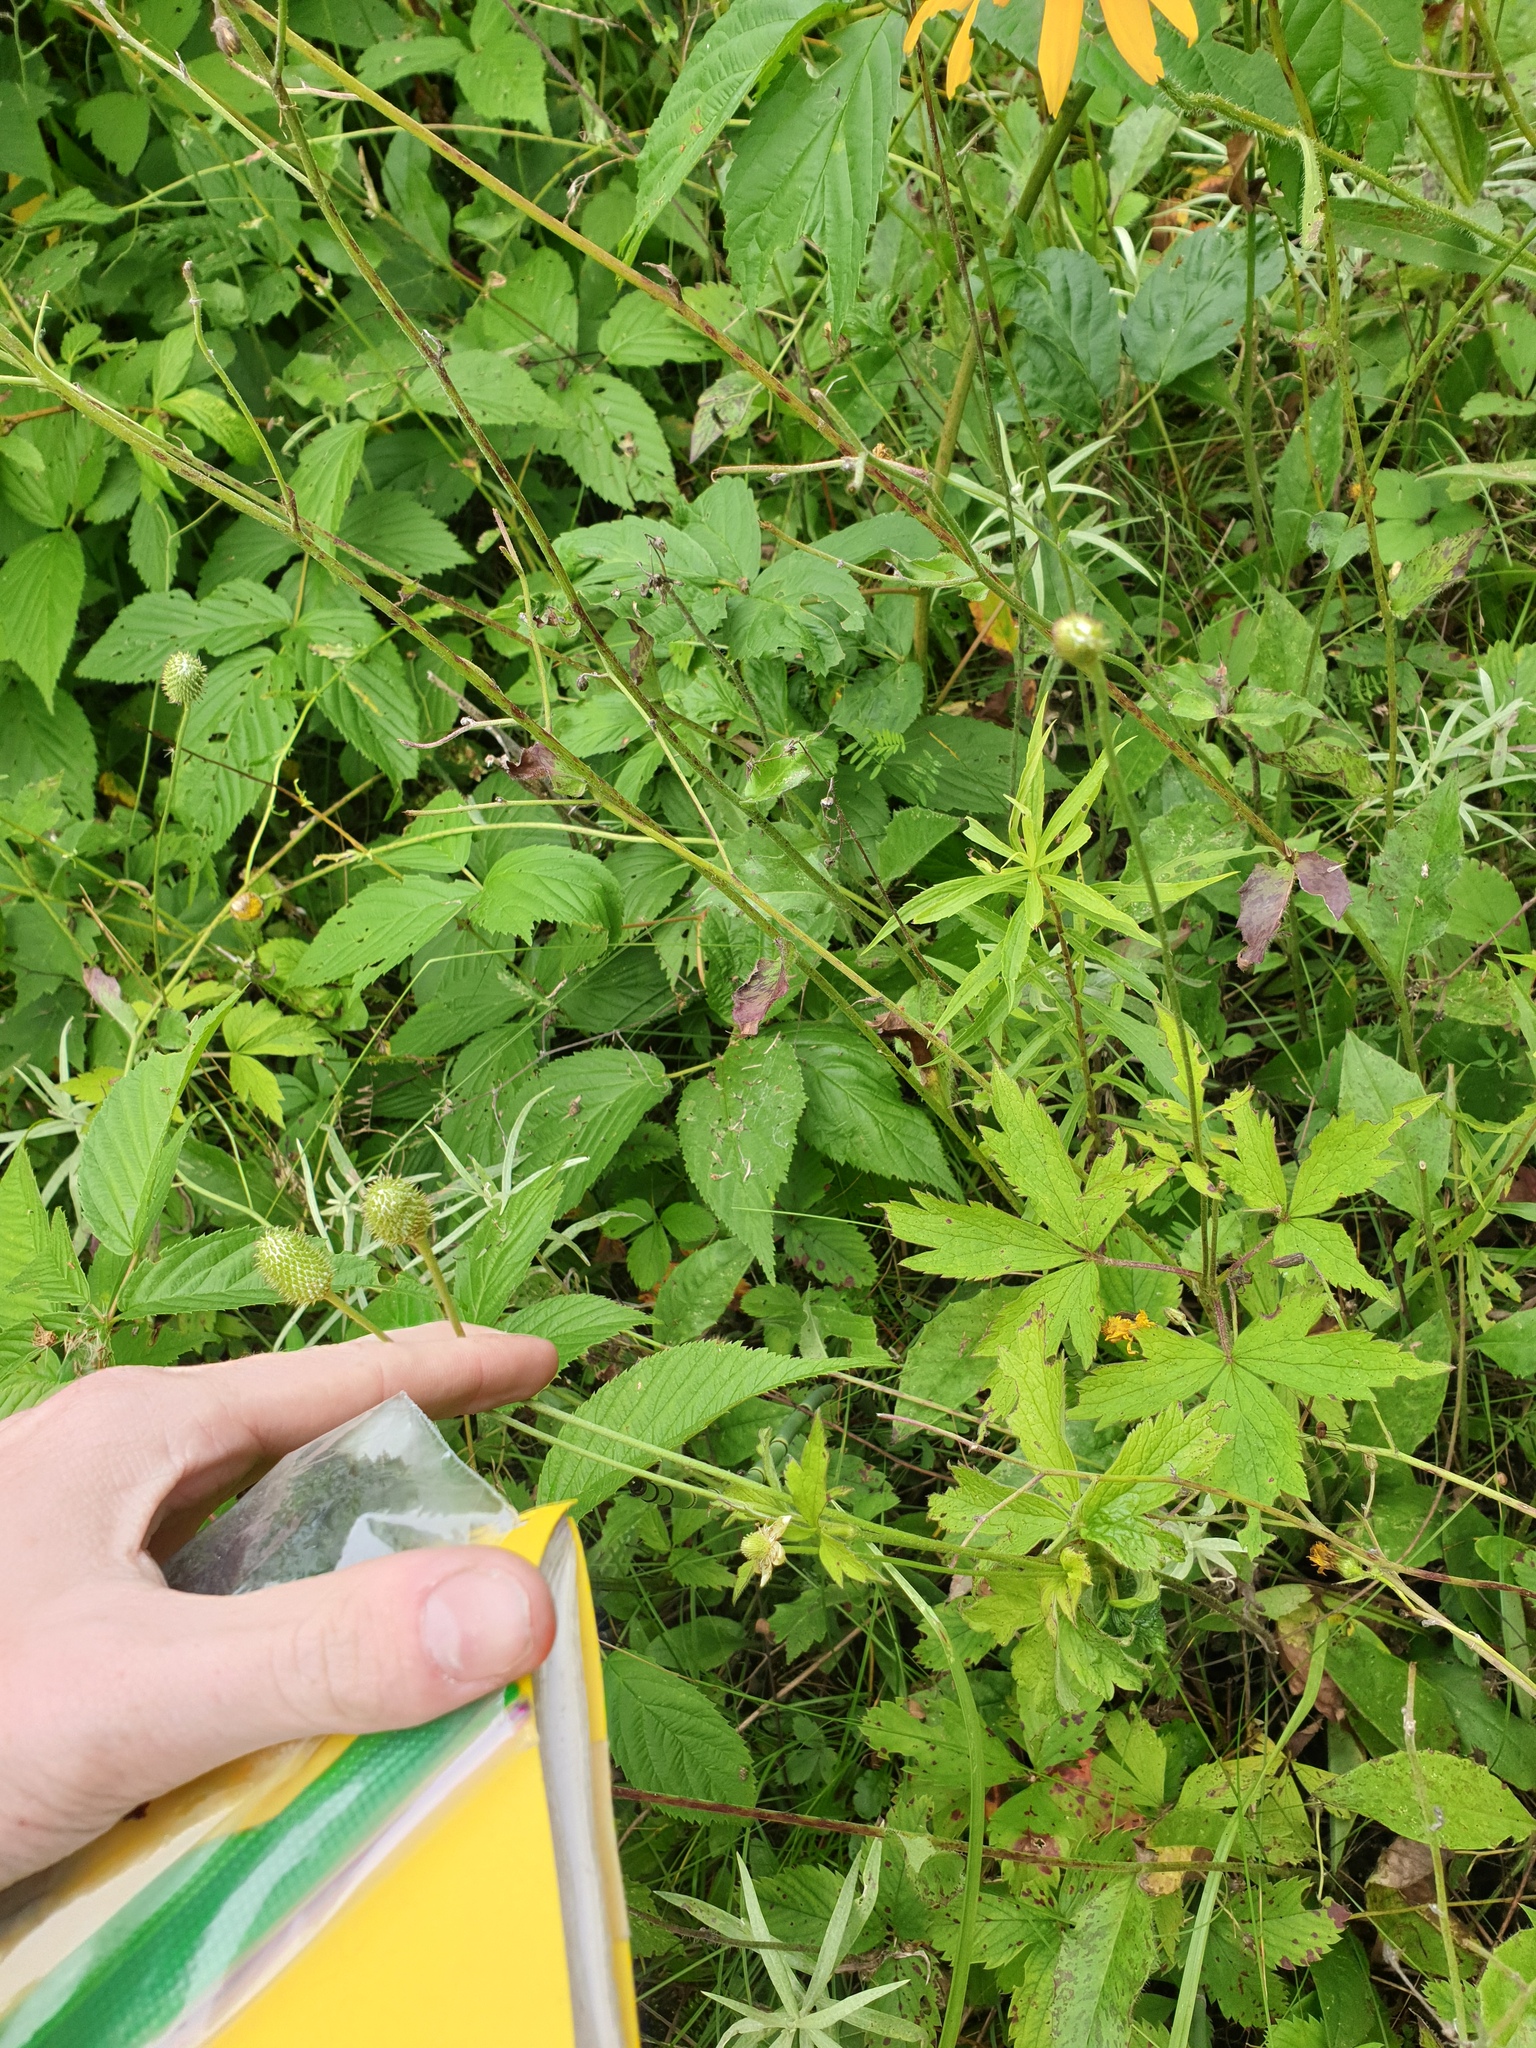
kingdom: Plantae
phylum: Tracheophyta
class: Magnoliopsida
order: Ranunculales
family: Ranunculaceae
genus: Anemone
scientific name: Anemone virginiana
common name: Tall anemone
